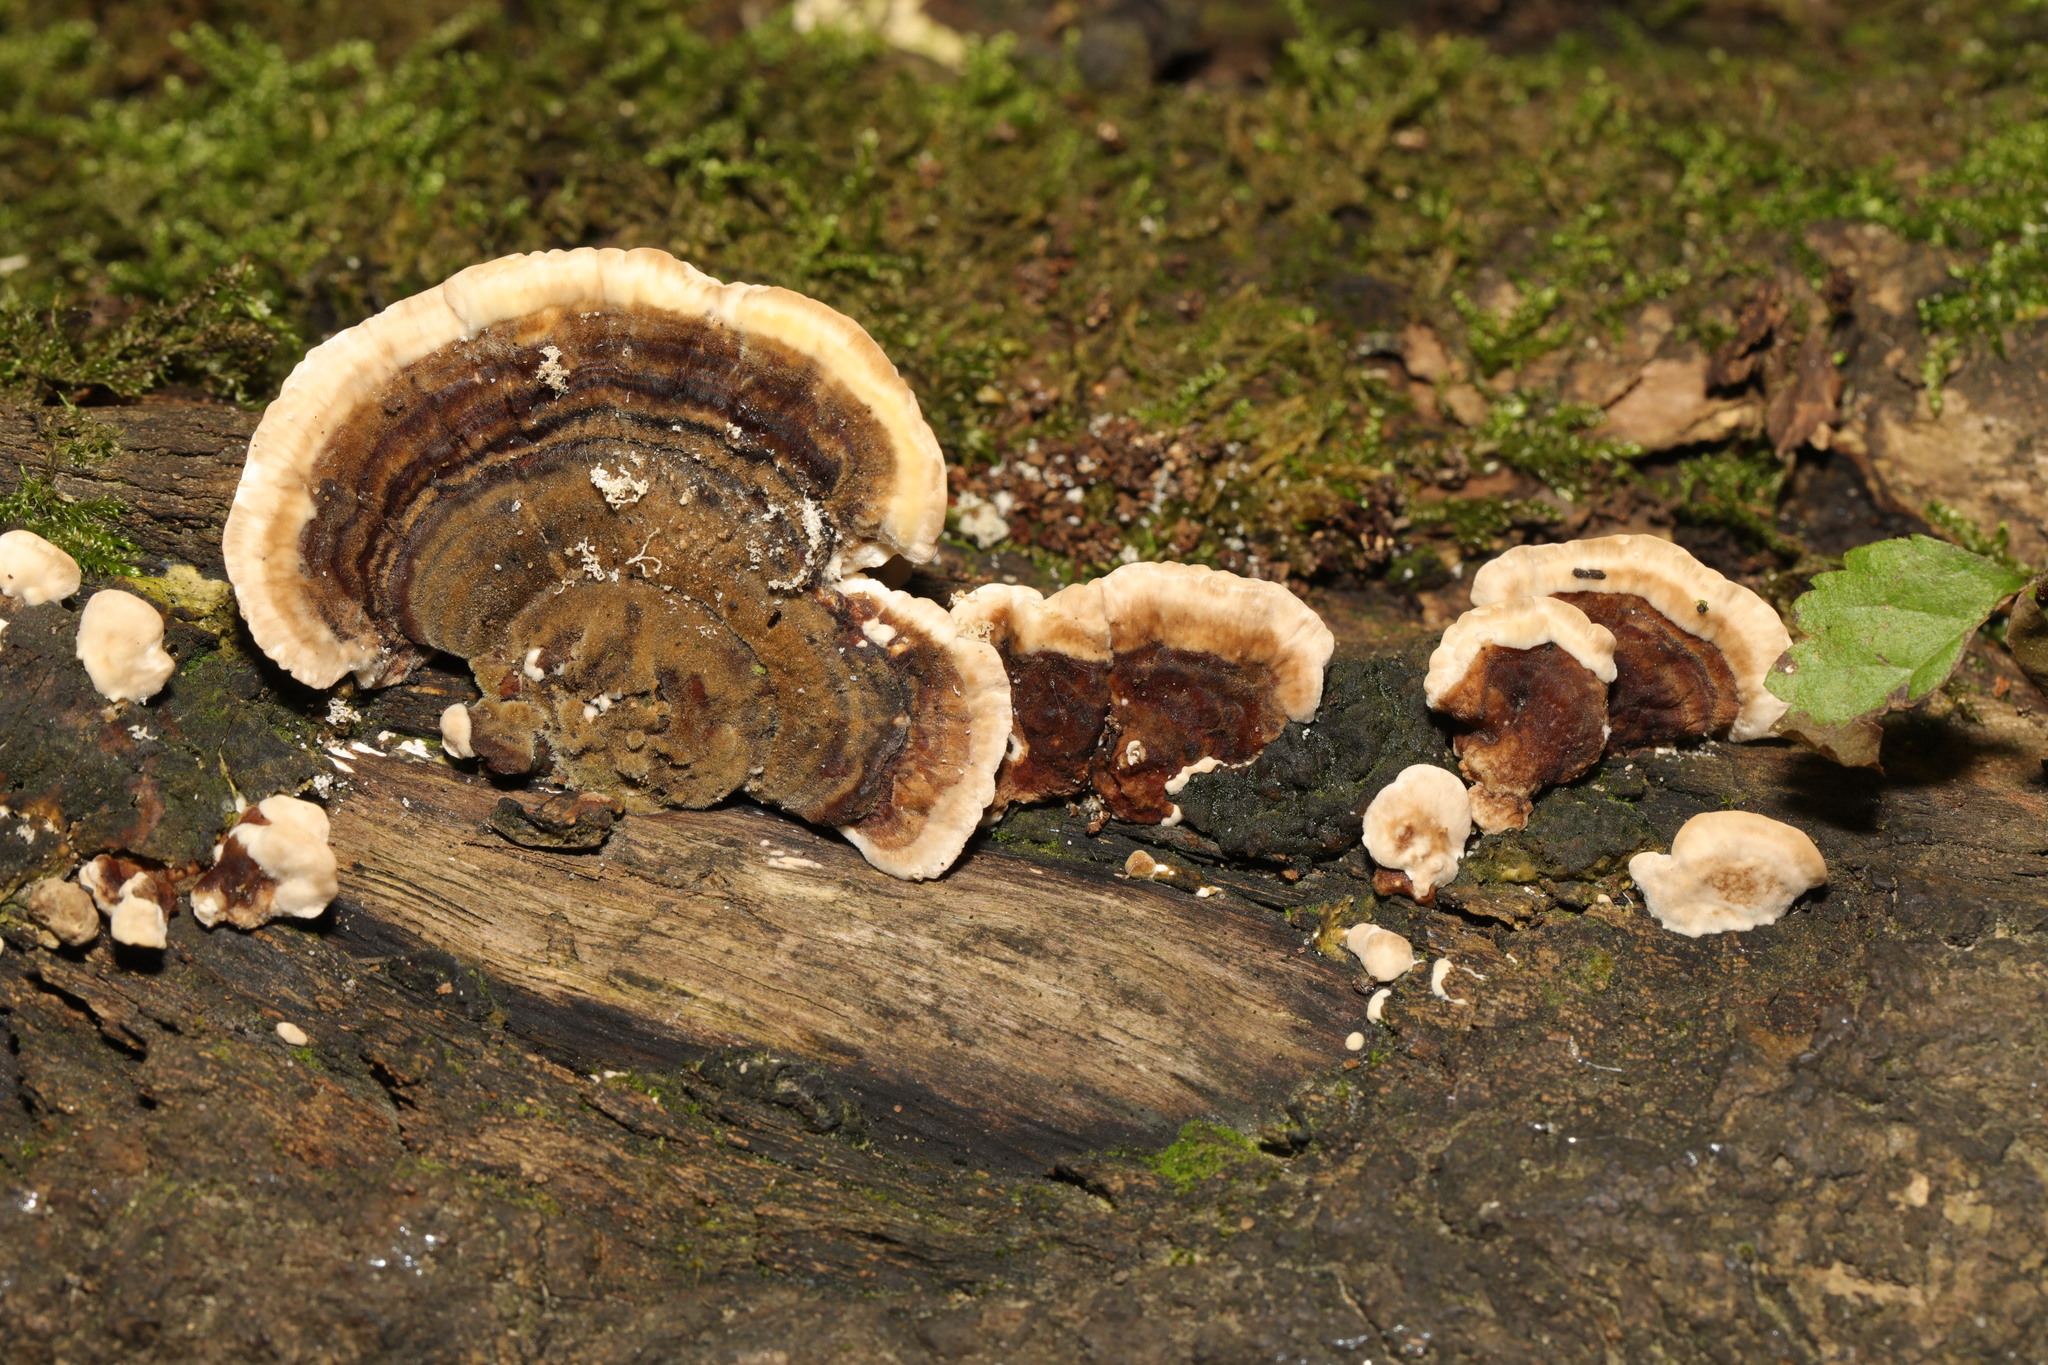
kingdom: Fungi
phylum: Basidiomycota
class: Agaricomycetes
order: Polyporales
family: Polyporaceae
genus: Trametes
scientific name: Trametes versicolor
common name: Turkeytail
